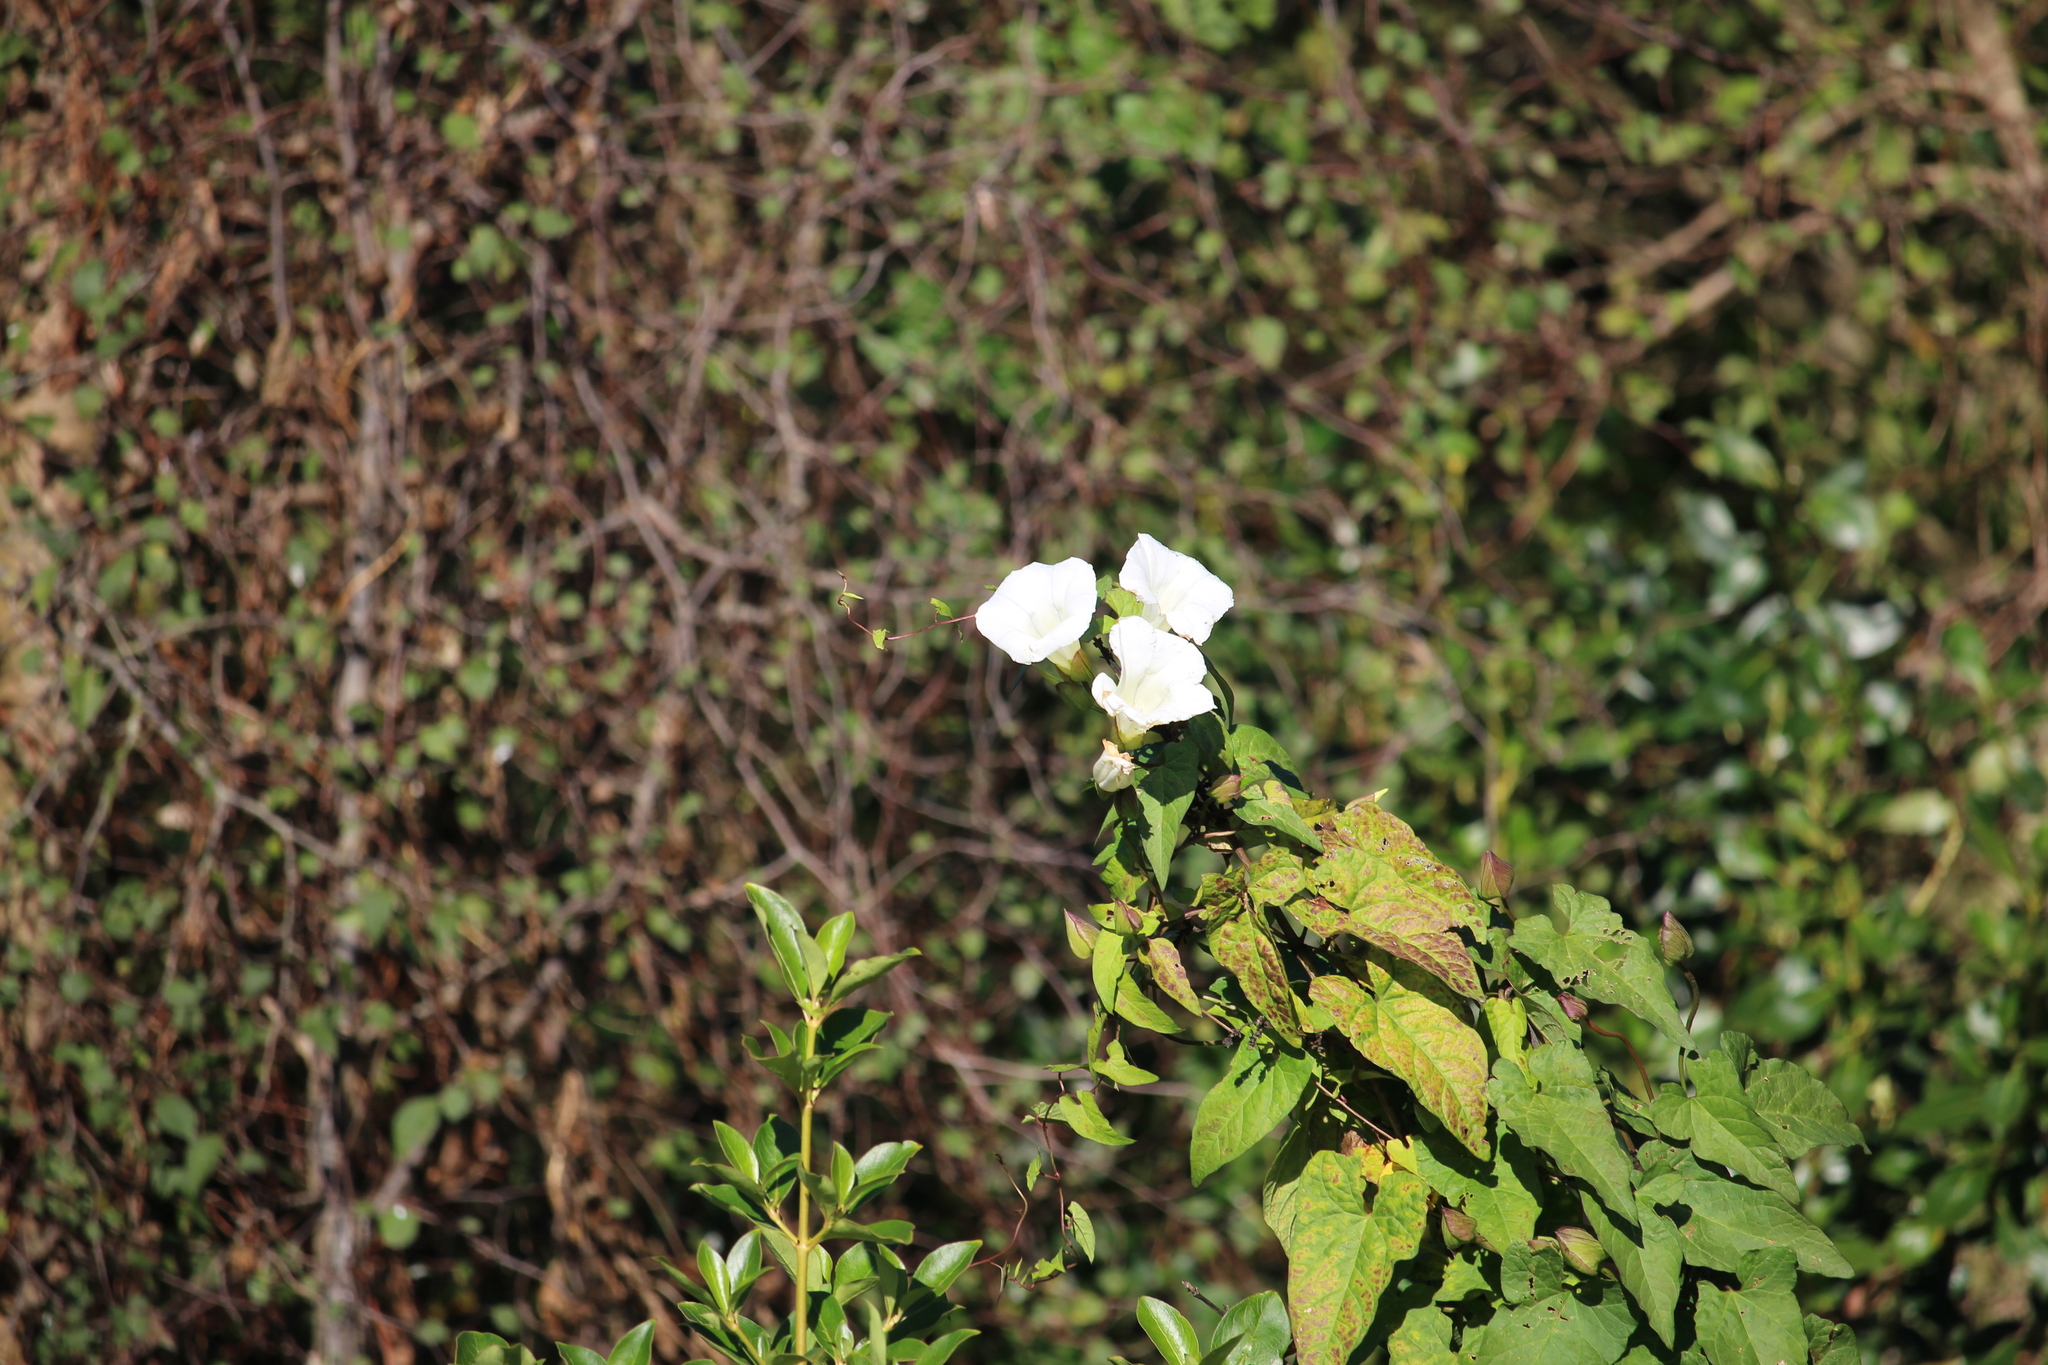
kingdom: Plantae
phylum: Tracheophyta
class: Magnoliopsida
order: Solanales
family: Convolvulaceae
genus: Calystegia
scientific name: Calystegia silvatica
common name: Large bindweed
